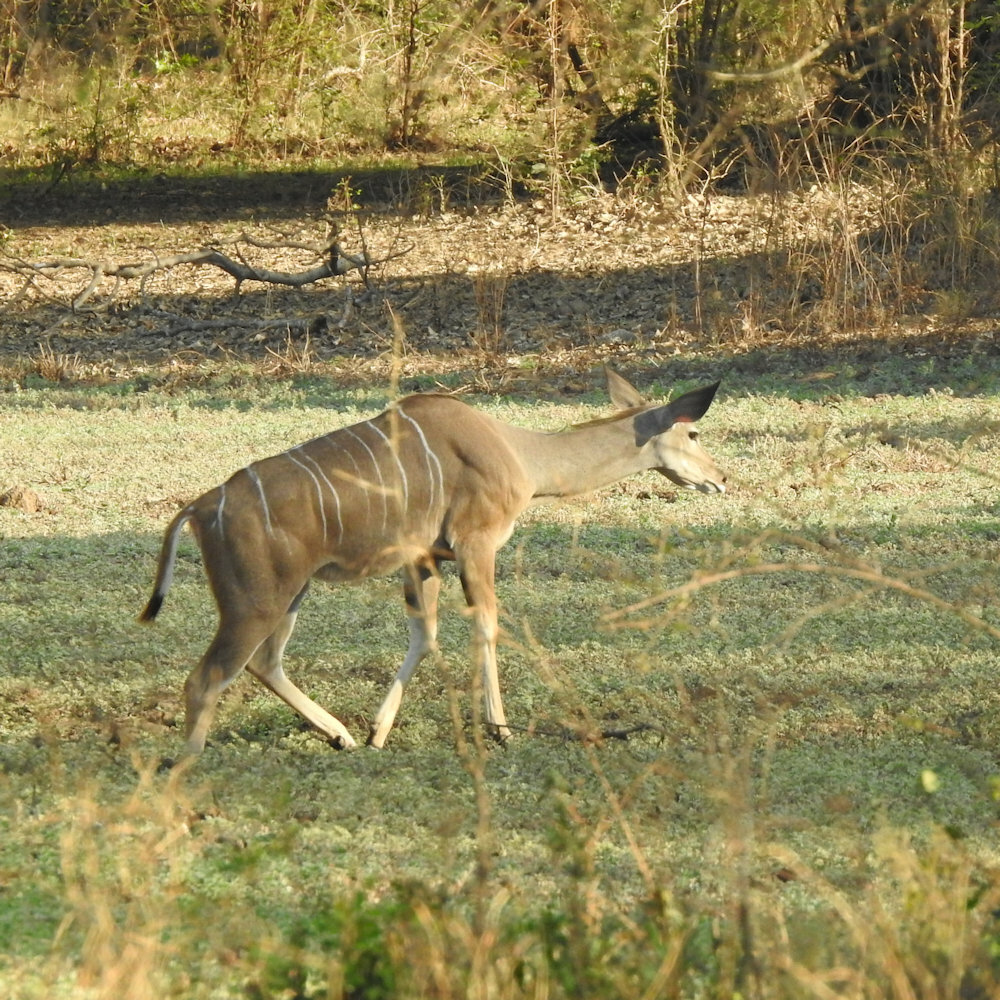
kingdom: Animalia
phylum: Chordata
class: Mammalia
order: Artiodactyla
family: Bovidae
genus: Tragelaphus
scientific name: Tragelaphus strepsiceros
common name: Greater kudu
